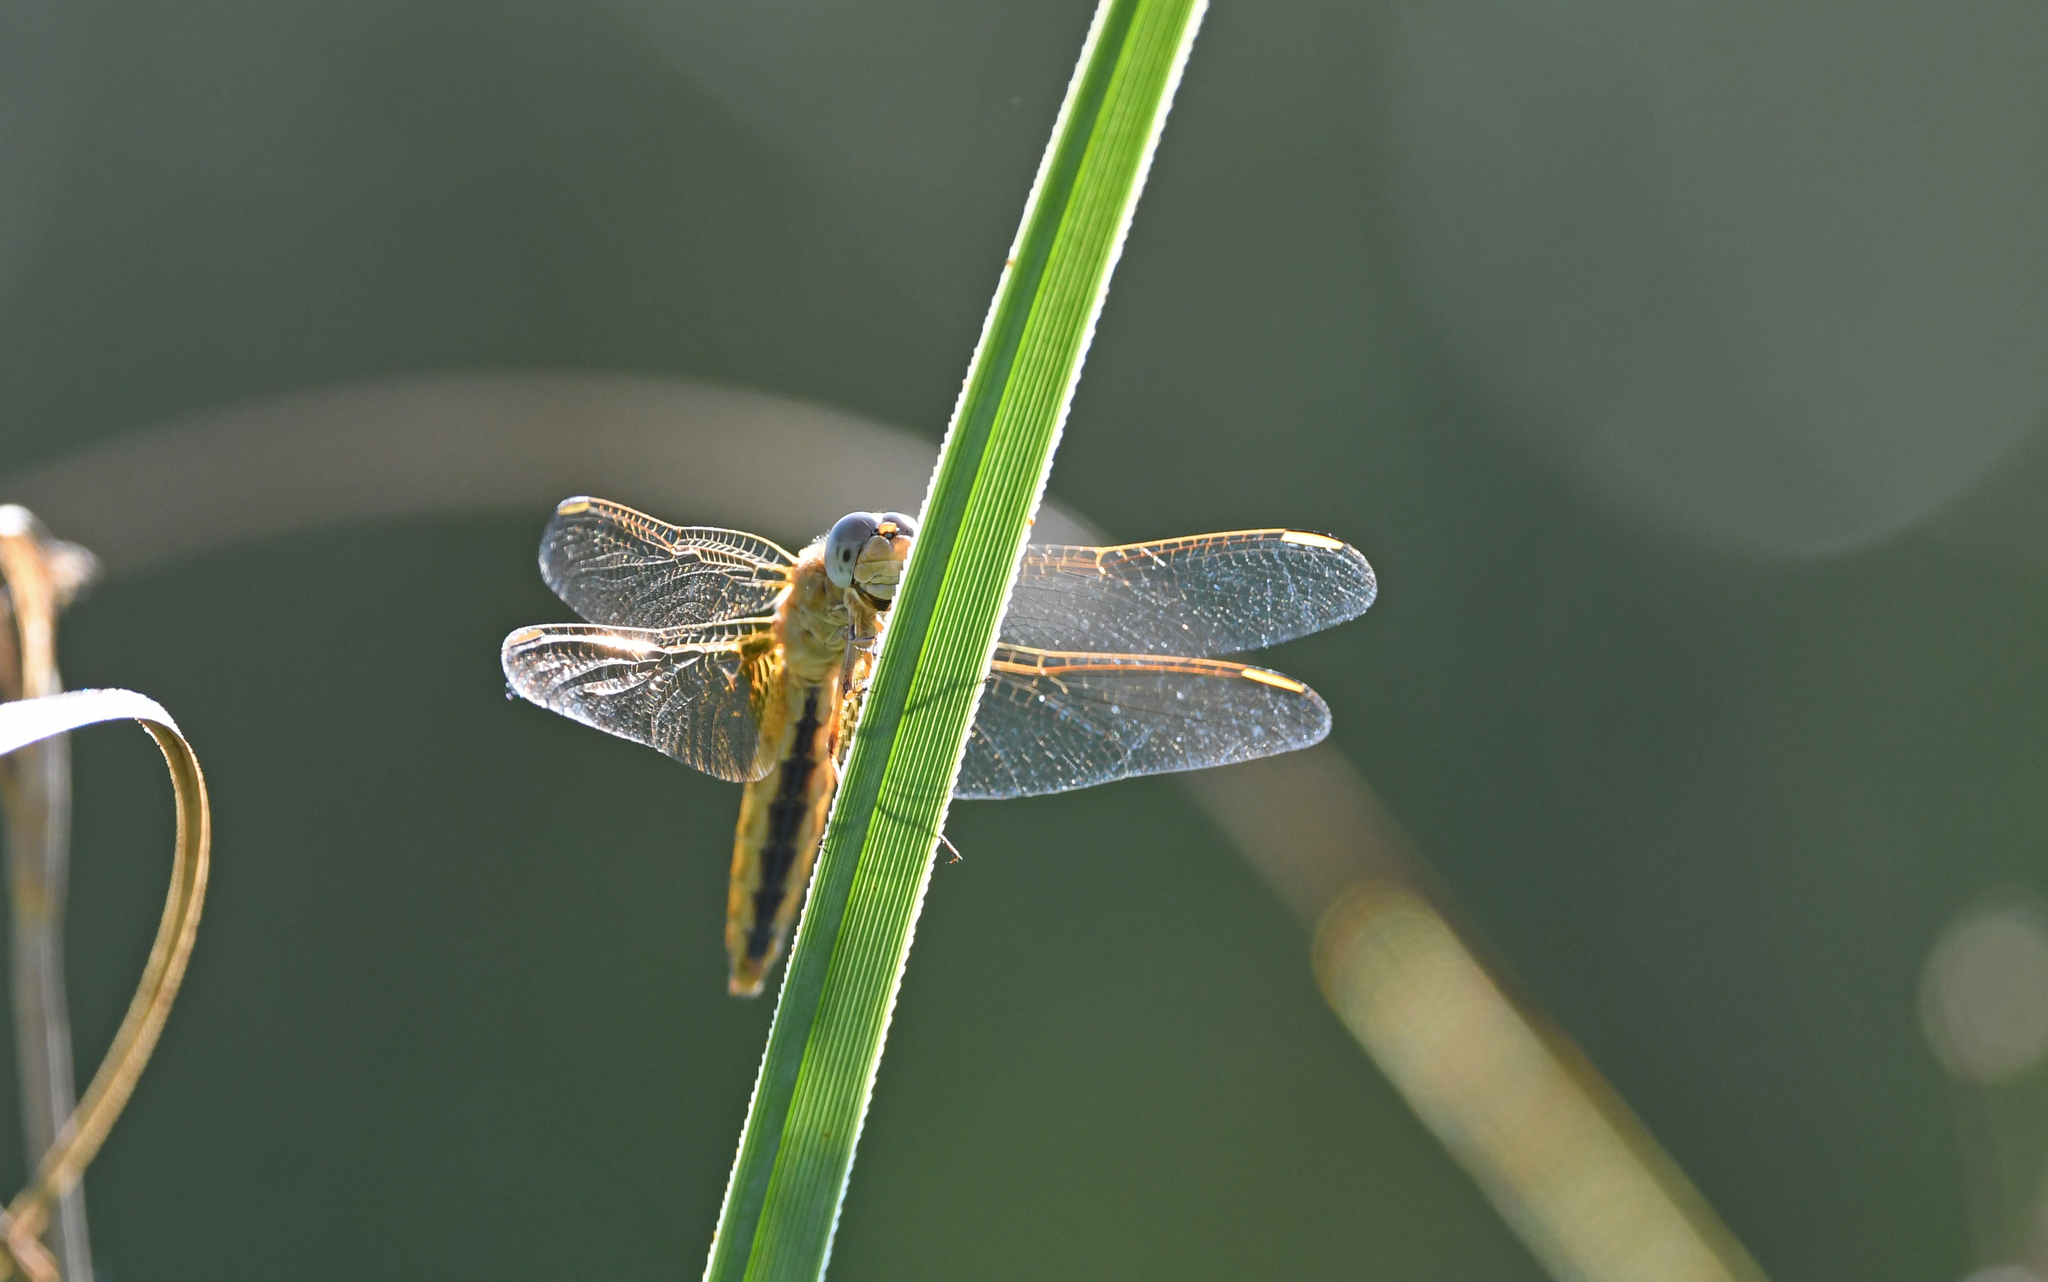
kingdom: Animalia
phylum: Arthropoda
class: Insecta
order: Odonata
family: Libellulidae
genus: Libellula
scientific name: Libellula fulva
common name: Blue chaser
